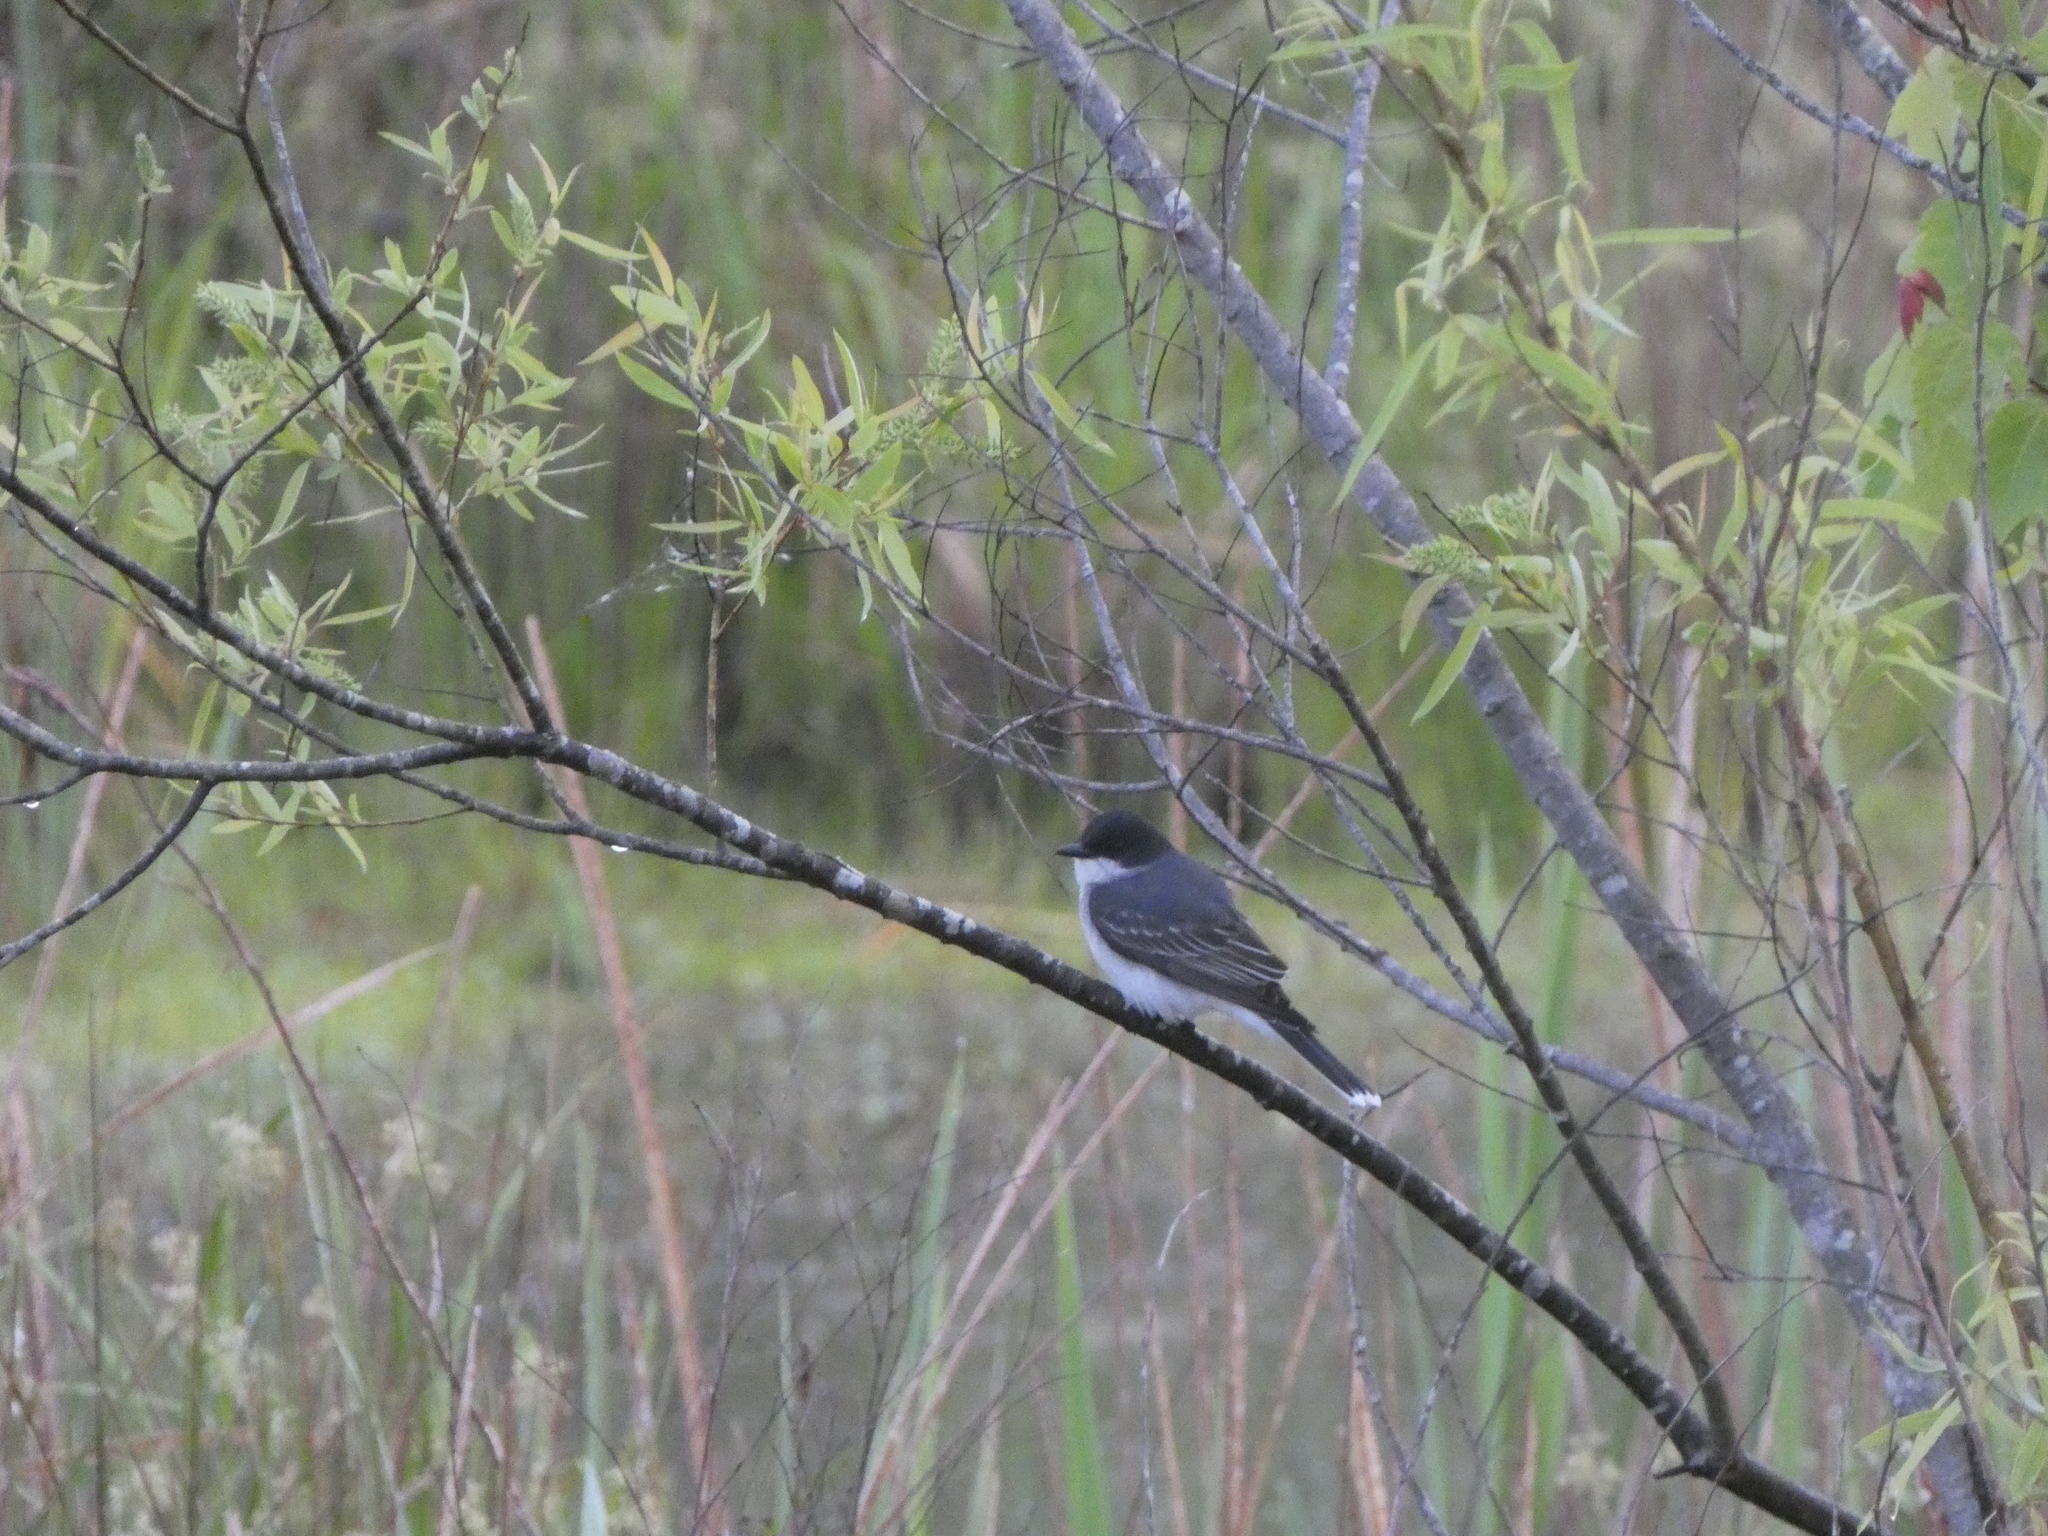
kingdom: Animalia
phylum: Chordata
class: Aves
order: Passeriformes
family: Tyrannidae
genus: Tyrannus
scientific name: Tyrannus tyrannus
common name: Eastern kingbird
